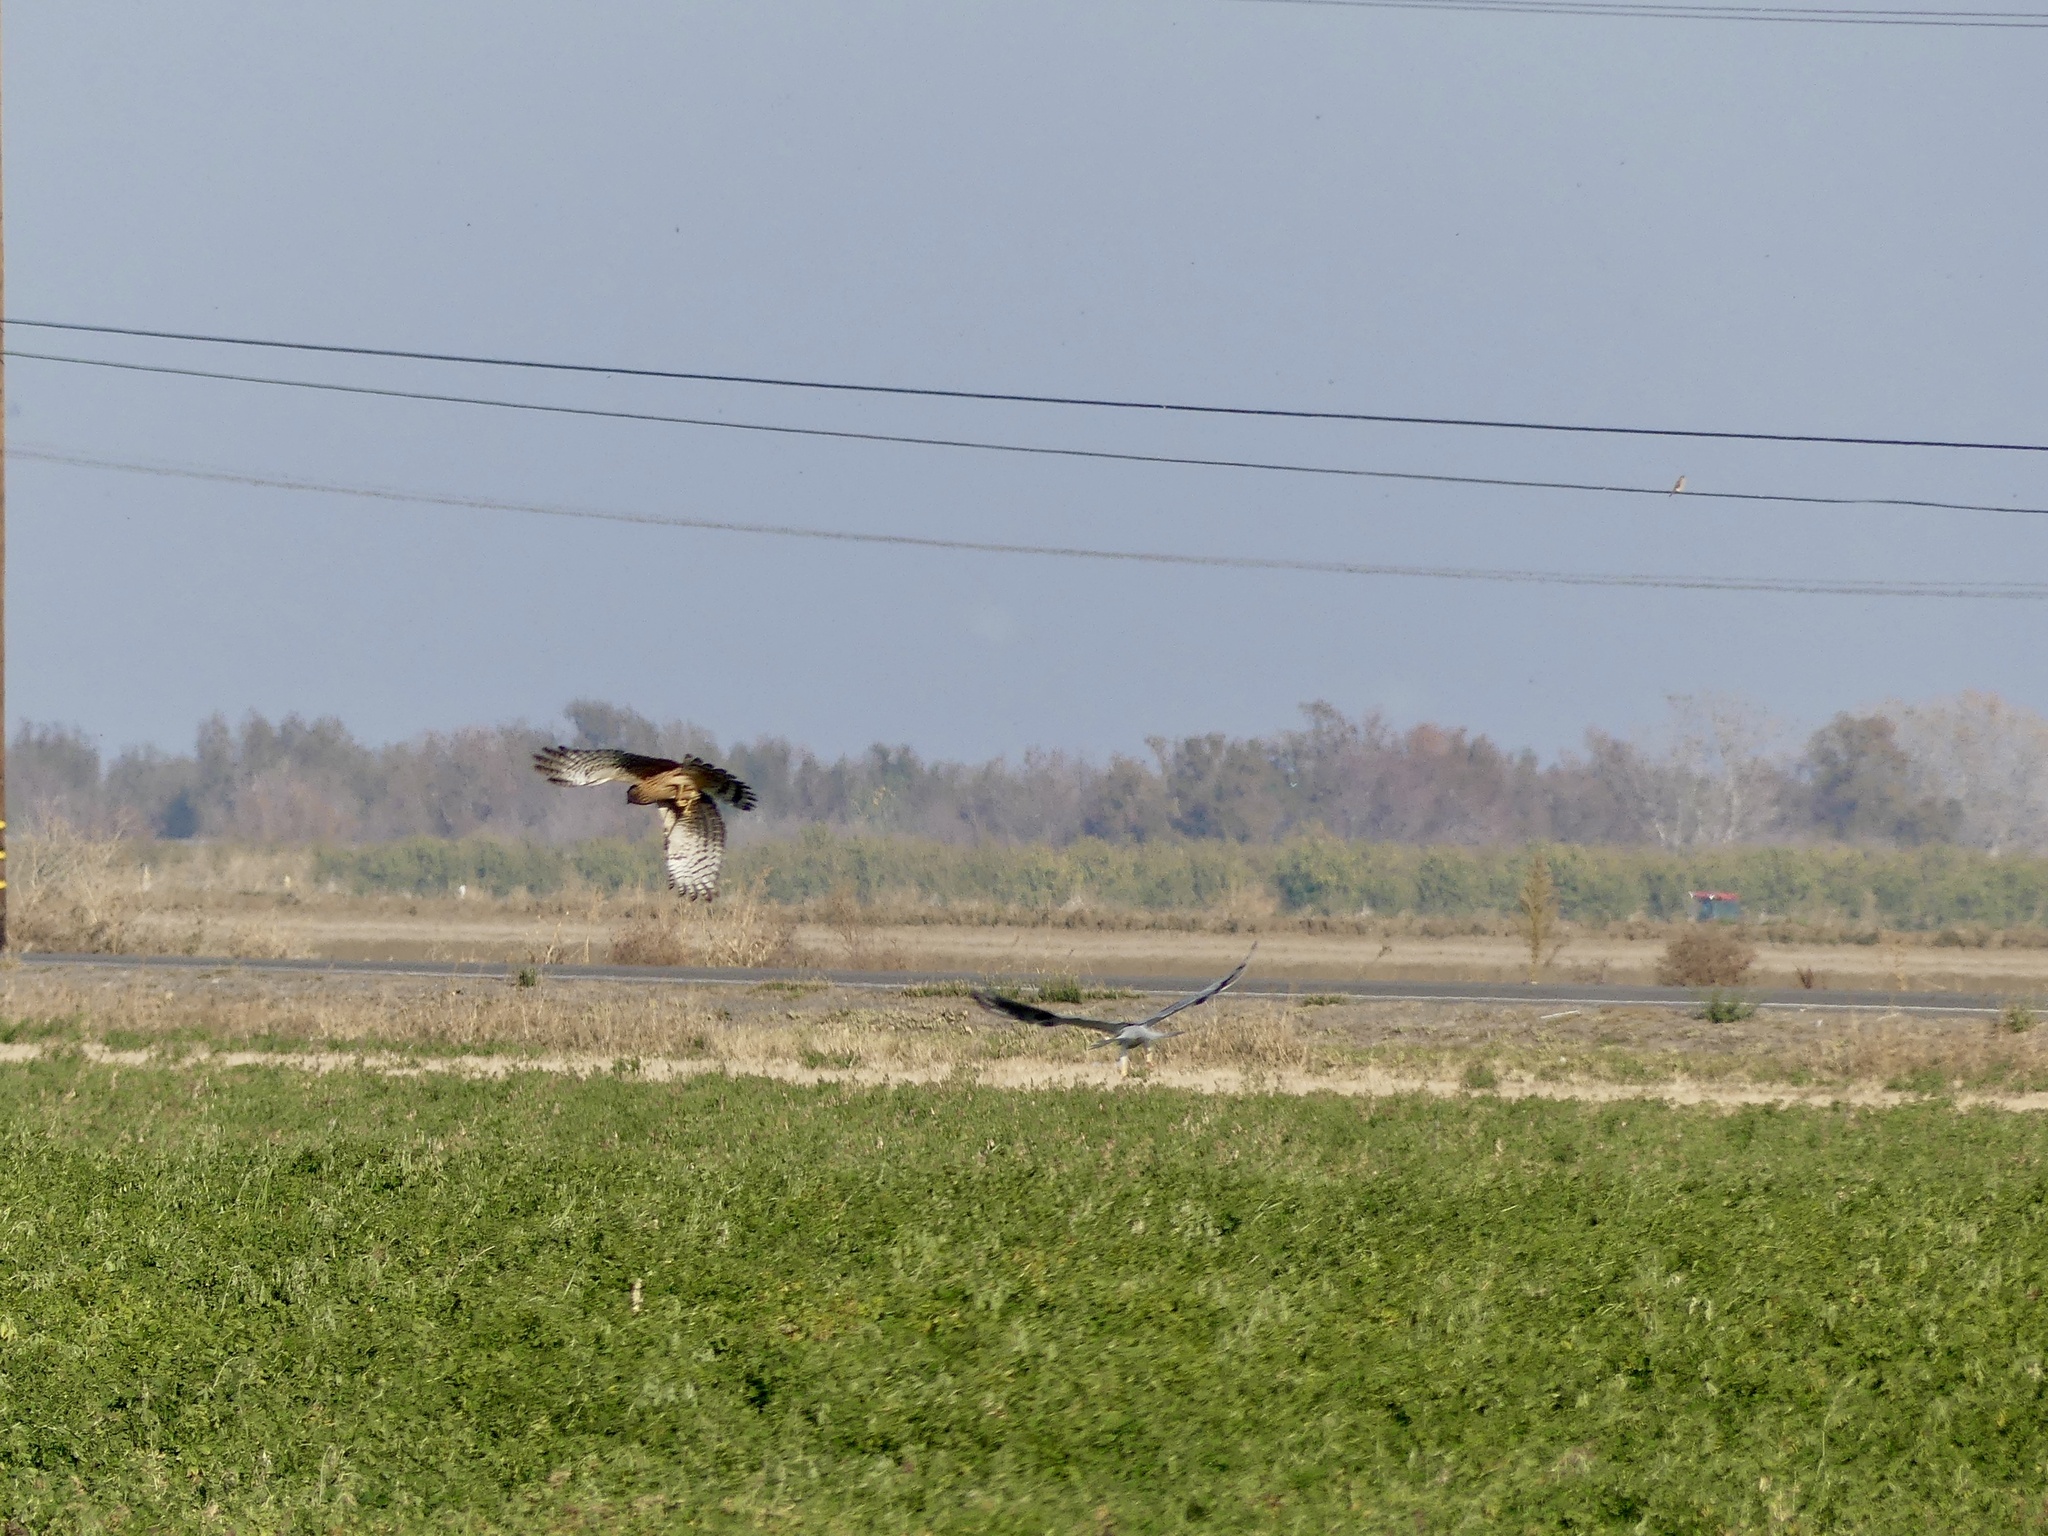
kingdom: Animalia
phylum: Chordata
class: Aves
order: Accipitriformes
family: Accipitridae
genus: Circus
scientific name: Circus cyaneus
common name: Hen harrier
